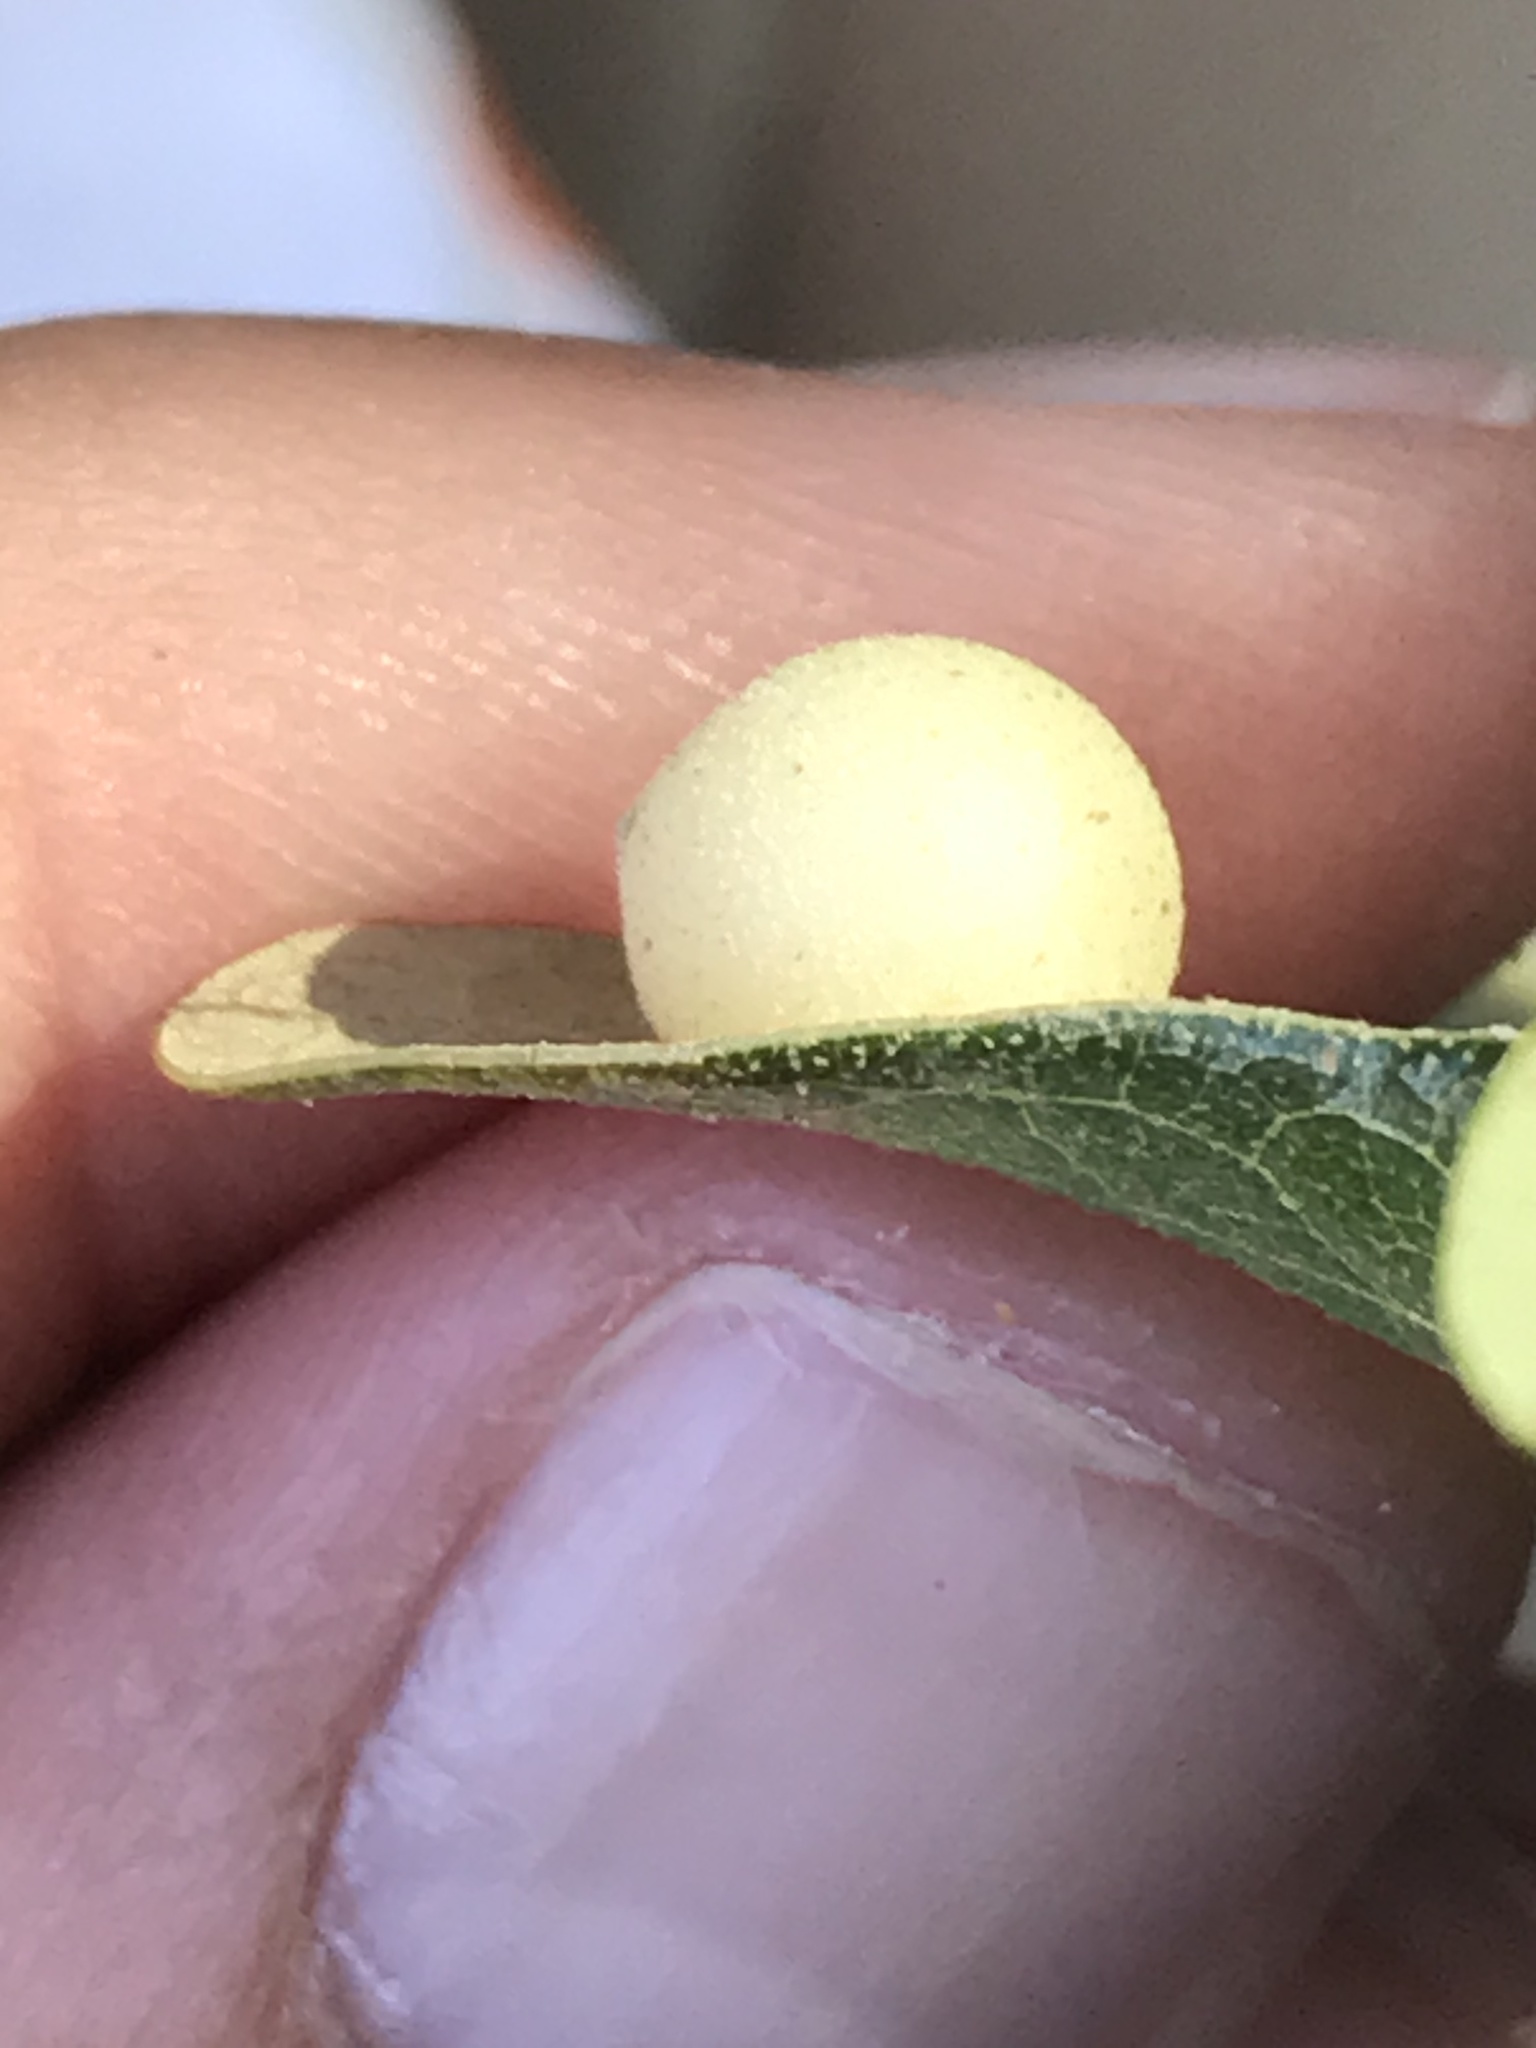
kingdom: Animalia
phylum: Arthropoda
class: Insecta
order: Hymenoptera
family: Cynipidae
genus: Atrusca
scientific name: Atrusca
